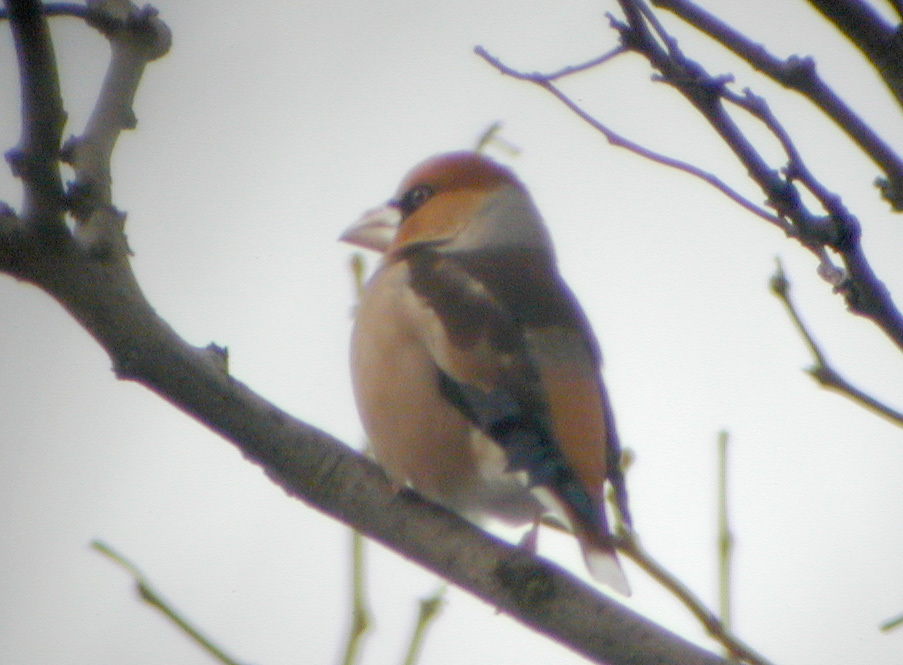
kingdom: Animalia
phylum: Chordata
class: Aves
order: Passeriformes
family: Fringillidae
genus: Coccothraustes
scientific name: Coccothraustes coccothraustes
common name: Hawfinch
